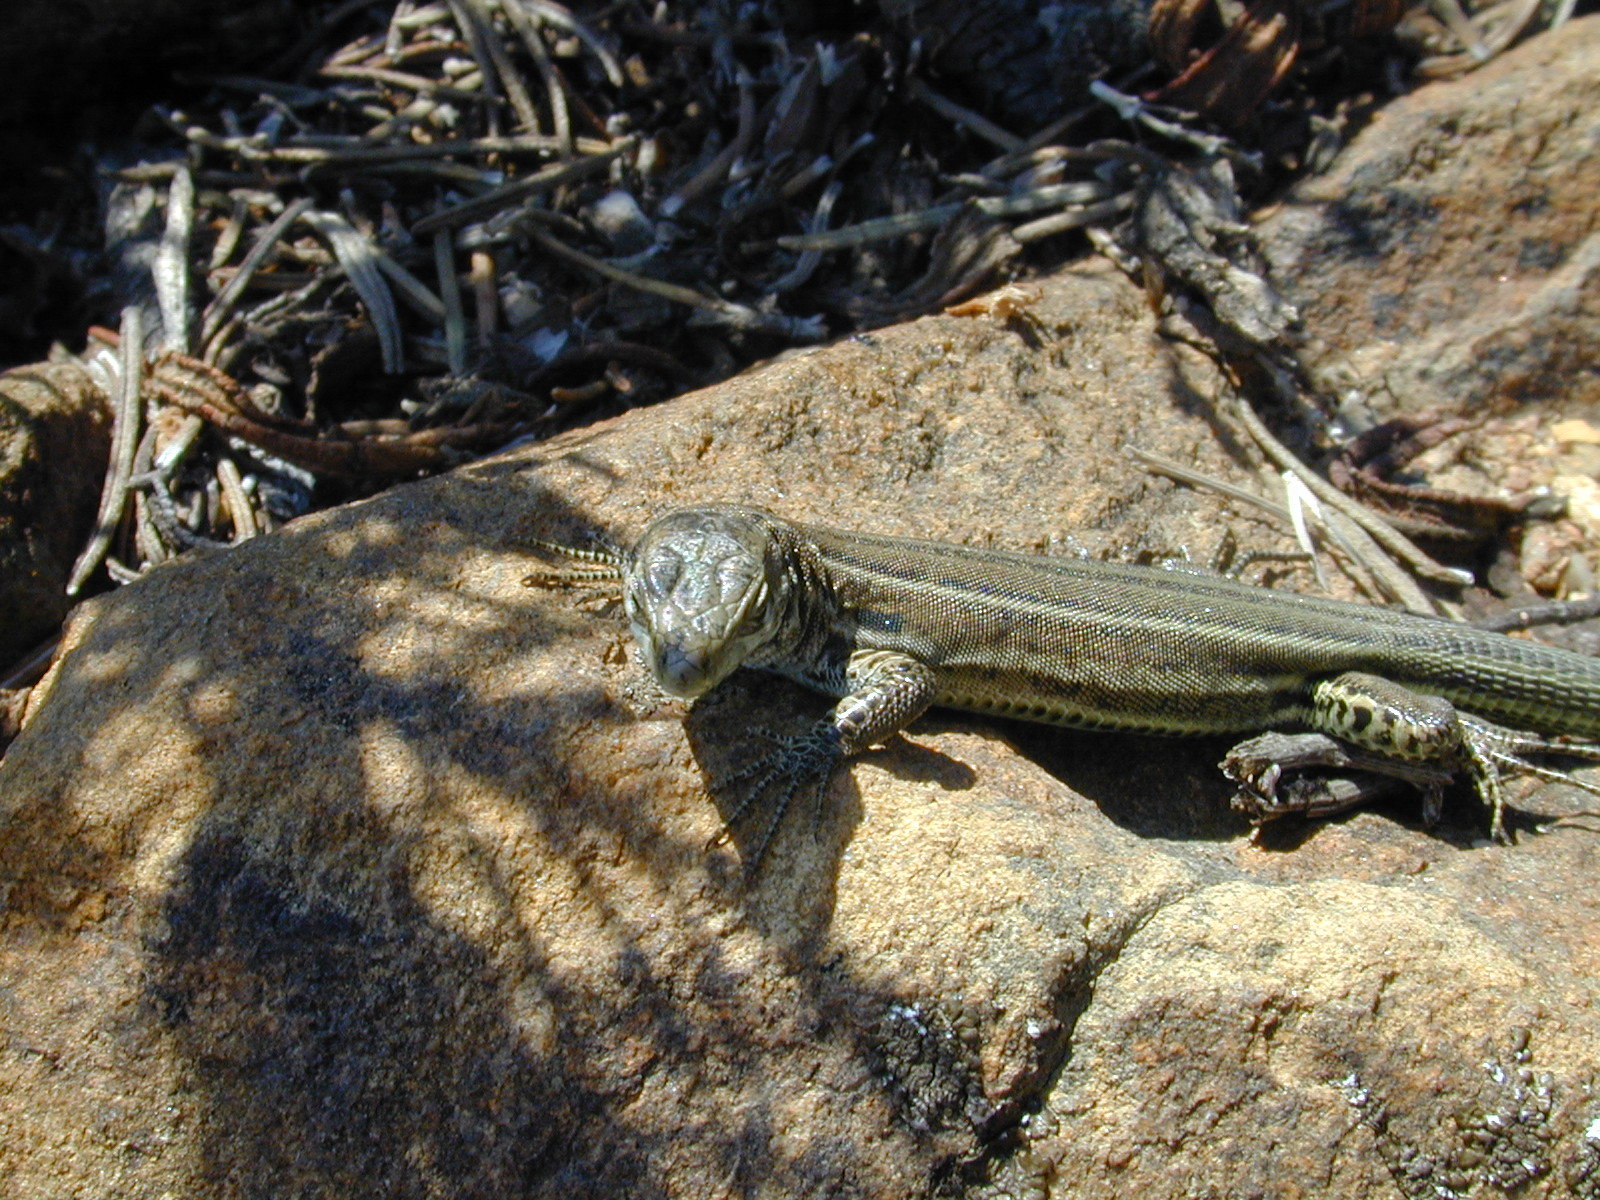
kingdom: Animalia
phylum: Chordata
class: Squamata
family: Lacertidae
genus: Podarcis
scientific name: Podarcis siculus
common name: Italian wall lizard
